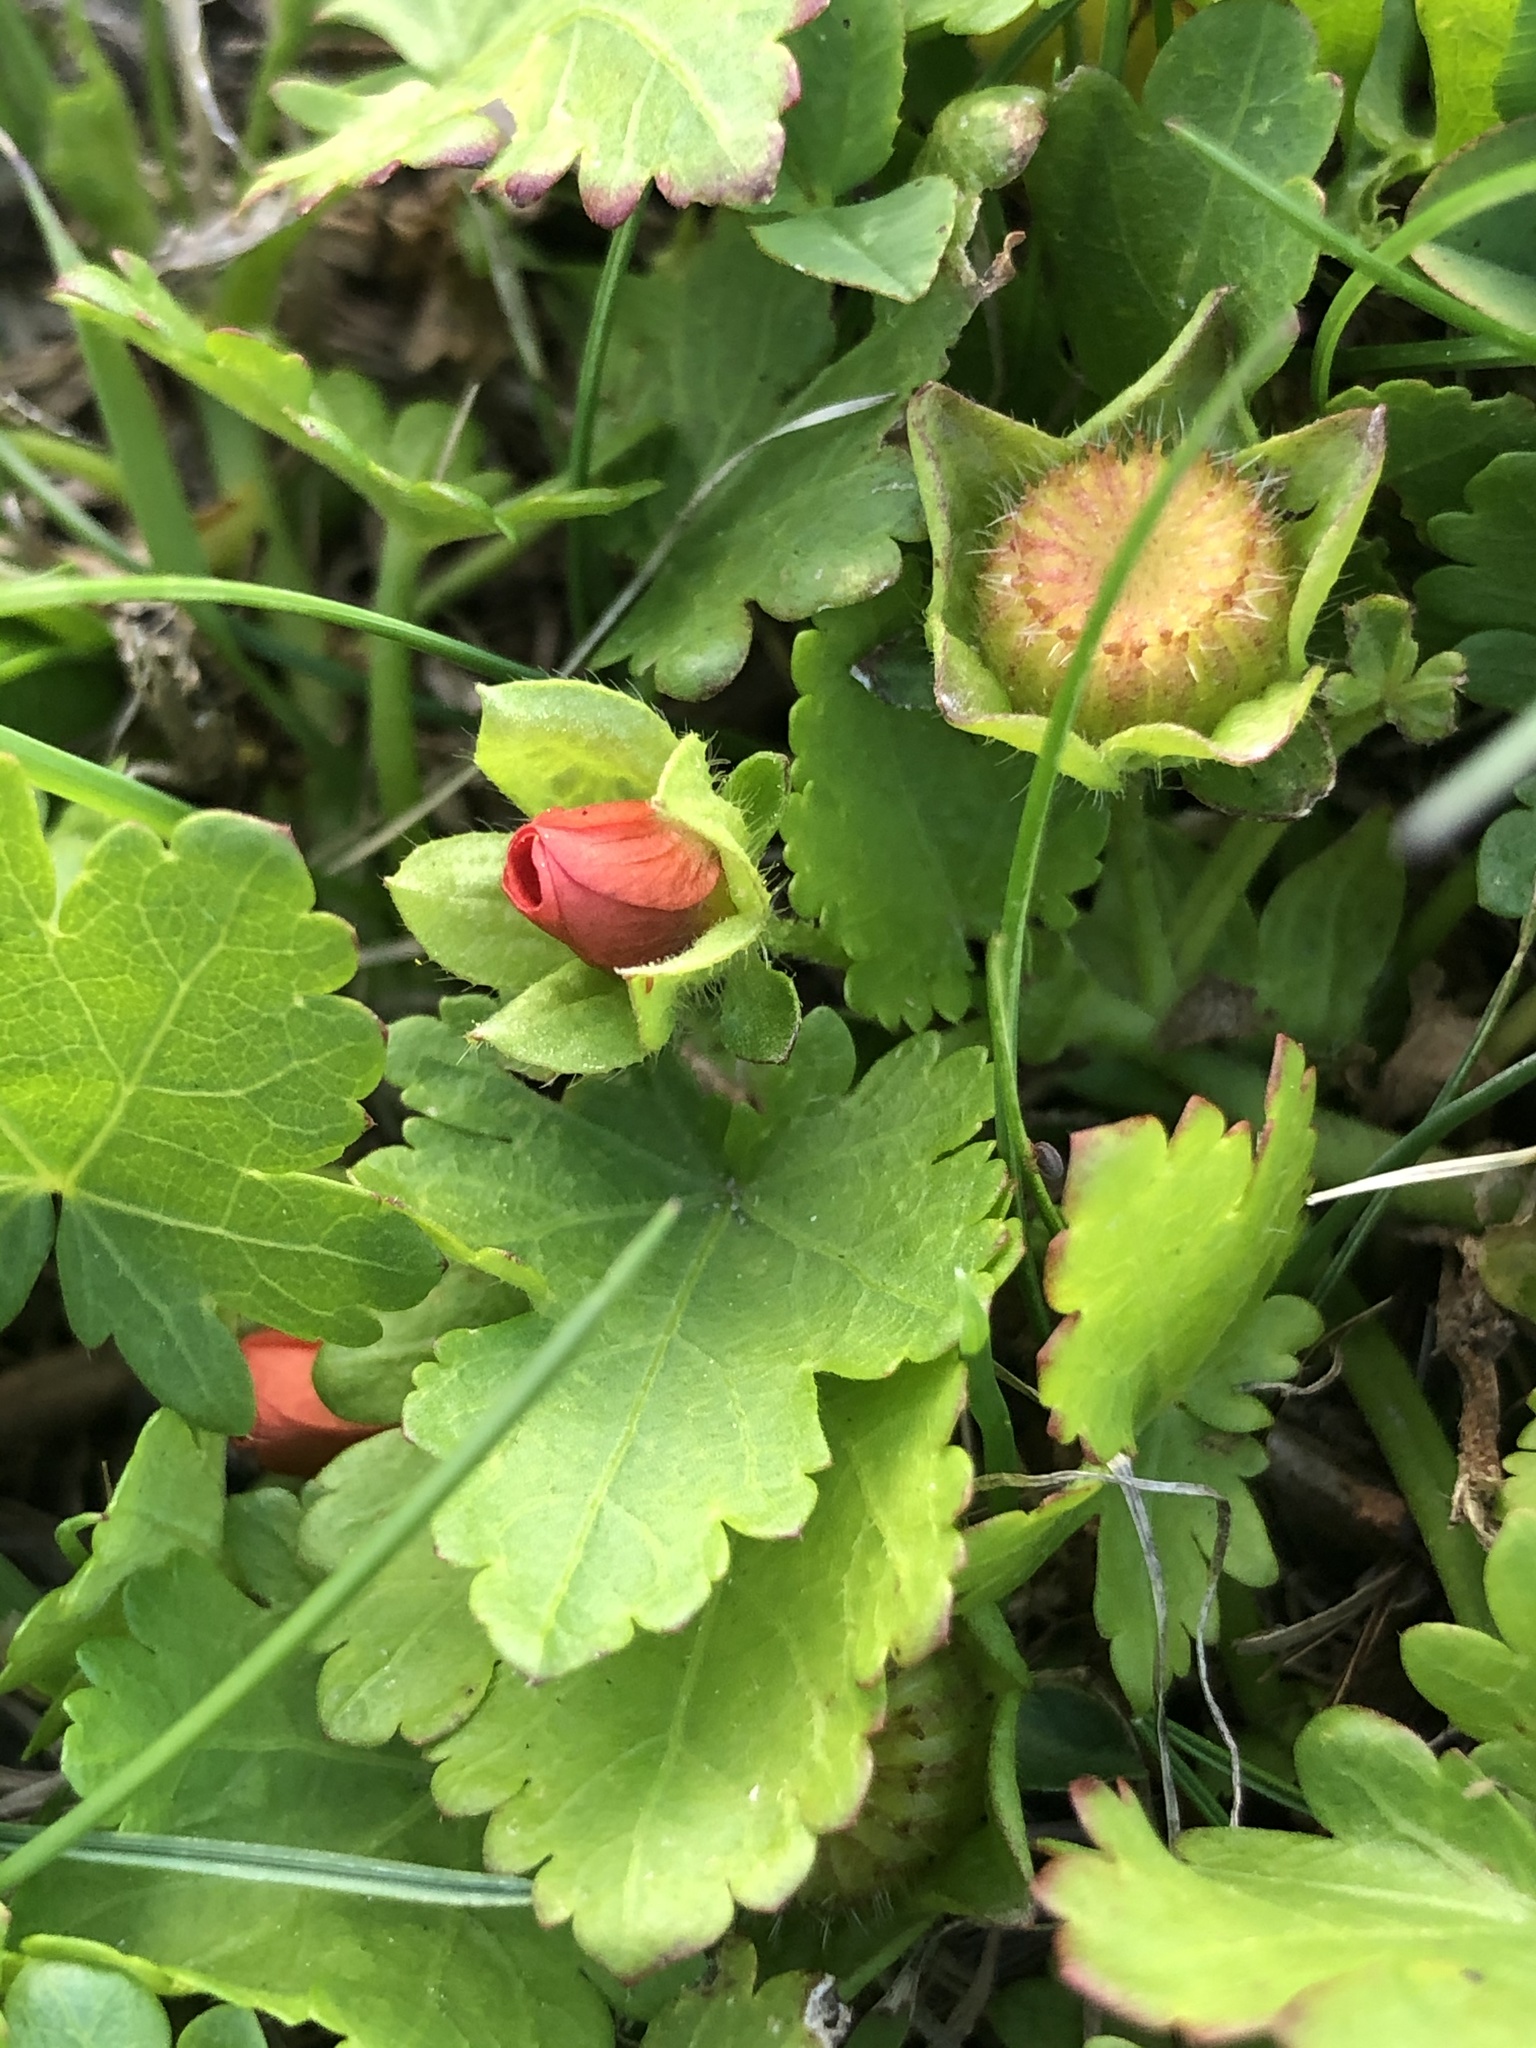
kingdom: Plantae
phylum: Tracheophyta
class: Magnoliopsida
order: Malvales
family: Malvaceae
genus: Modiola
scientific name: Modiola caroliniana
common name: Carolina bristlemallow
